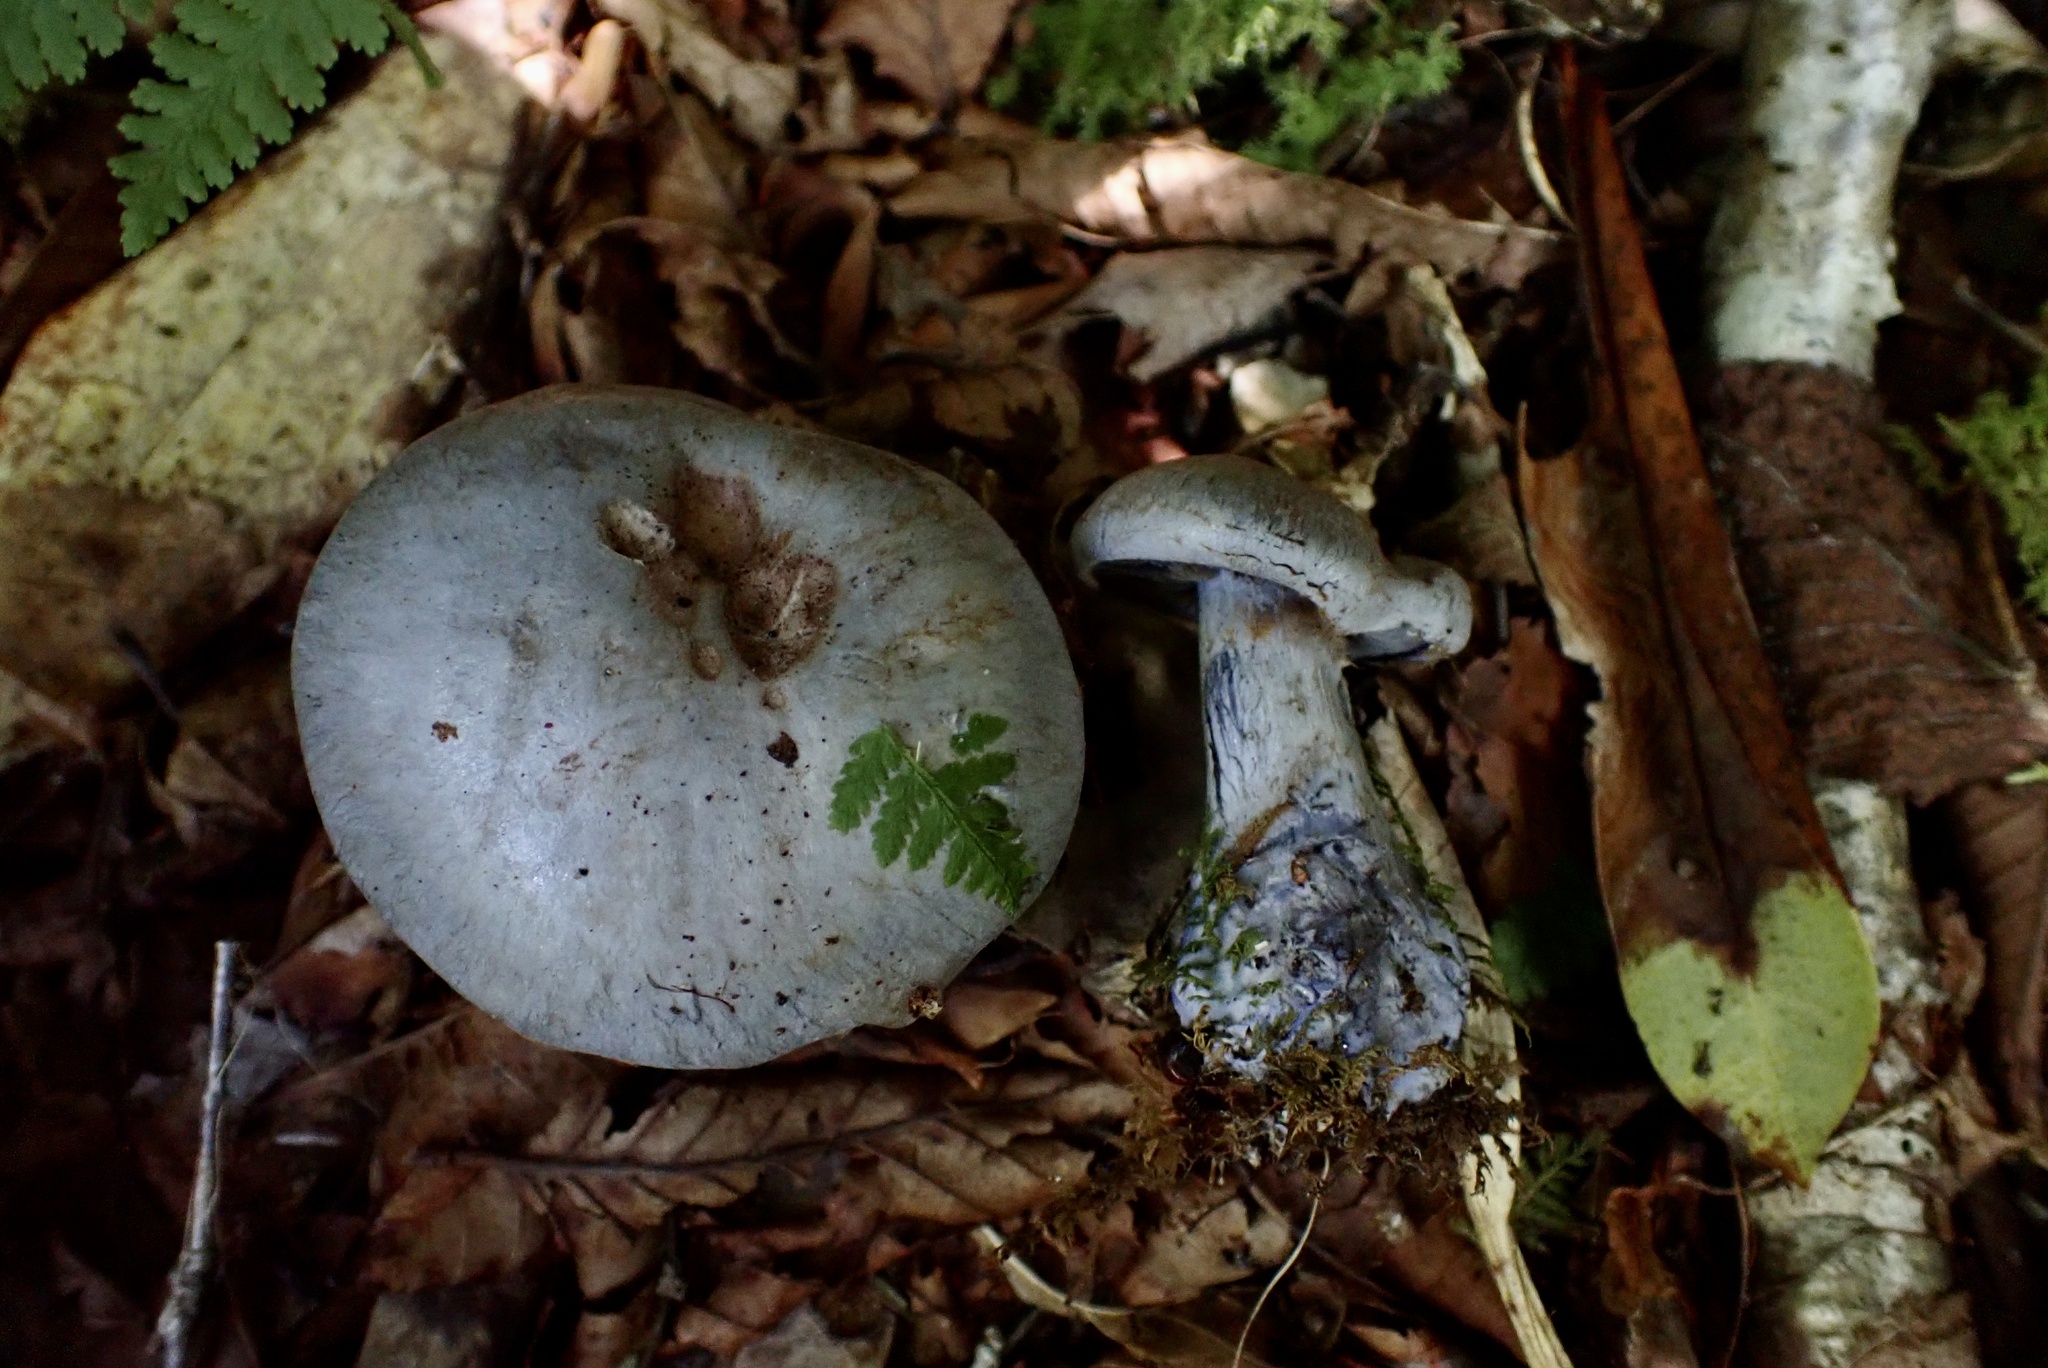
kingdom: Fungi
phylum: Basidiomycota
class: Agaricomycetes
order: Agaricales
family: Cortinariaceae
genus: Cortinarius
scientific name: Cortinarius cyanites
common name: Blushing webcap
